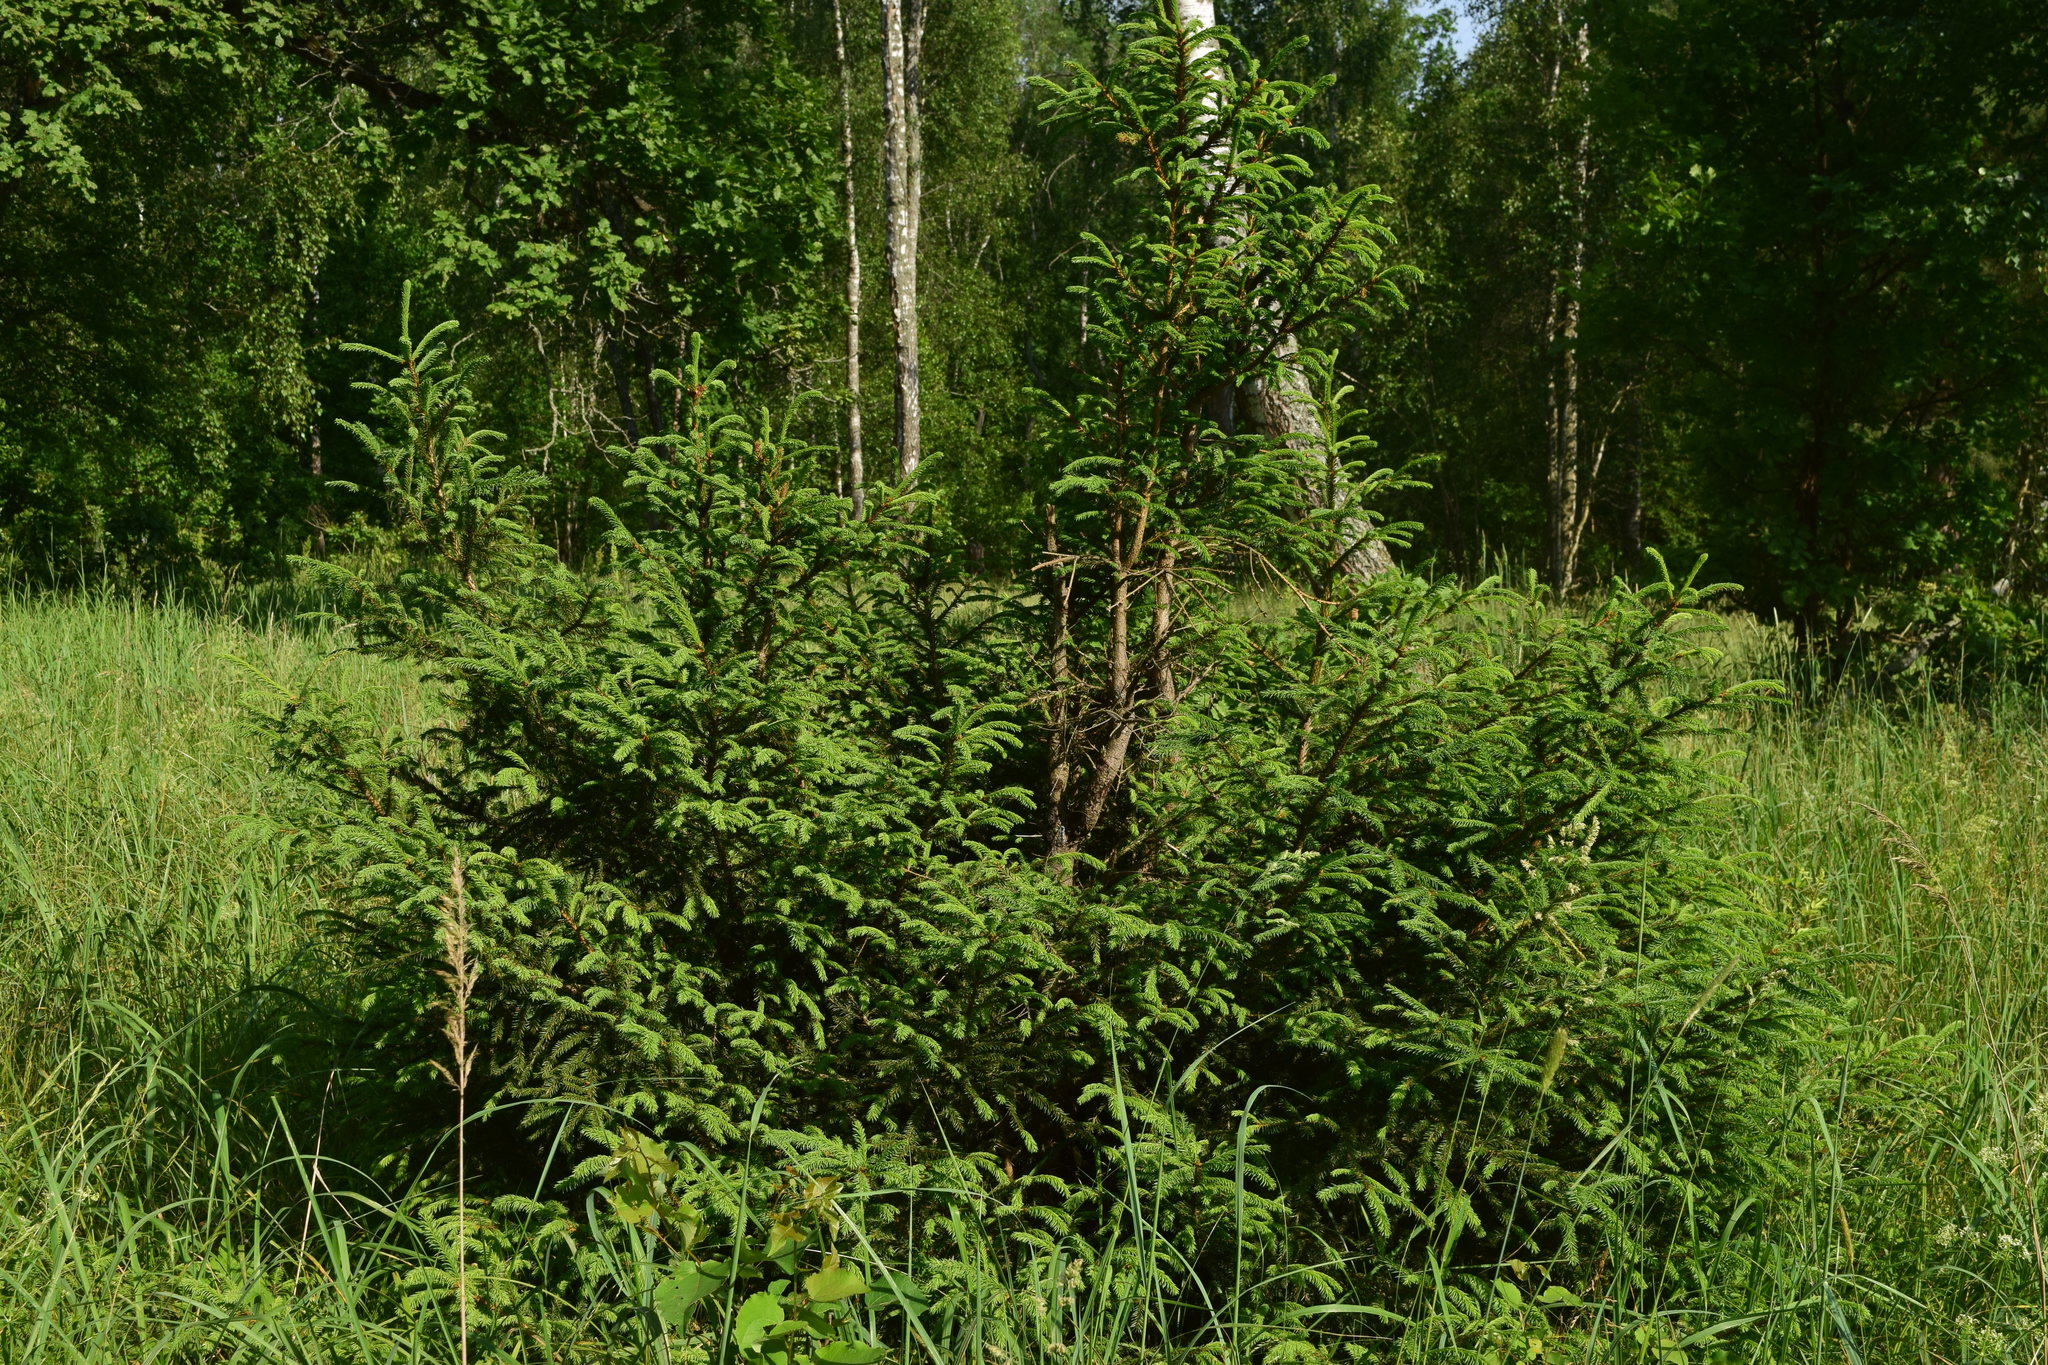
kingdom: Plantae
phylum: Tracheophyta
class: Pinopsida
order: Pinales
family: Pinaceae
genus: Picea
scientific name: Picea abies
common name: Norway spruce
